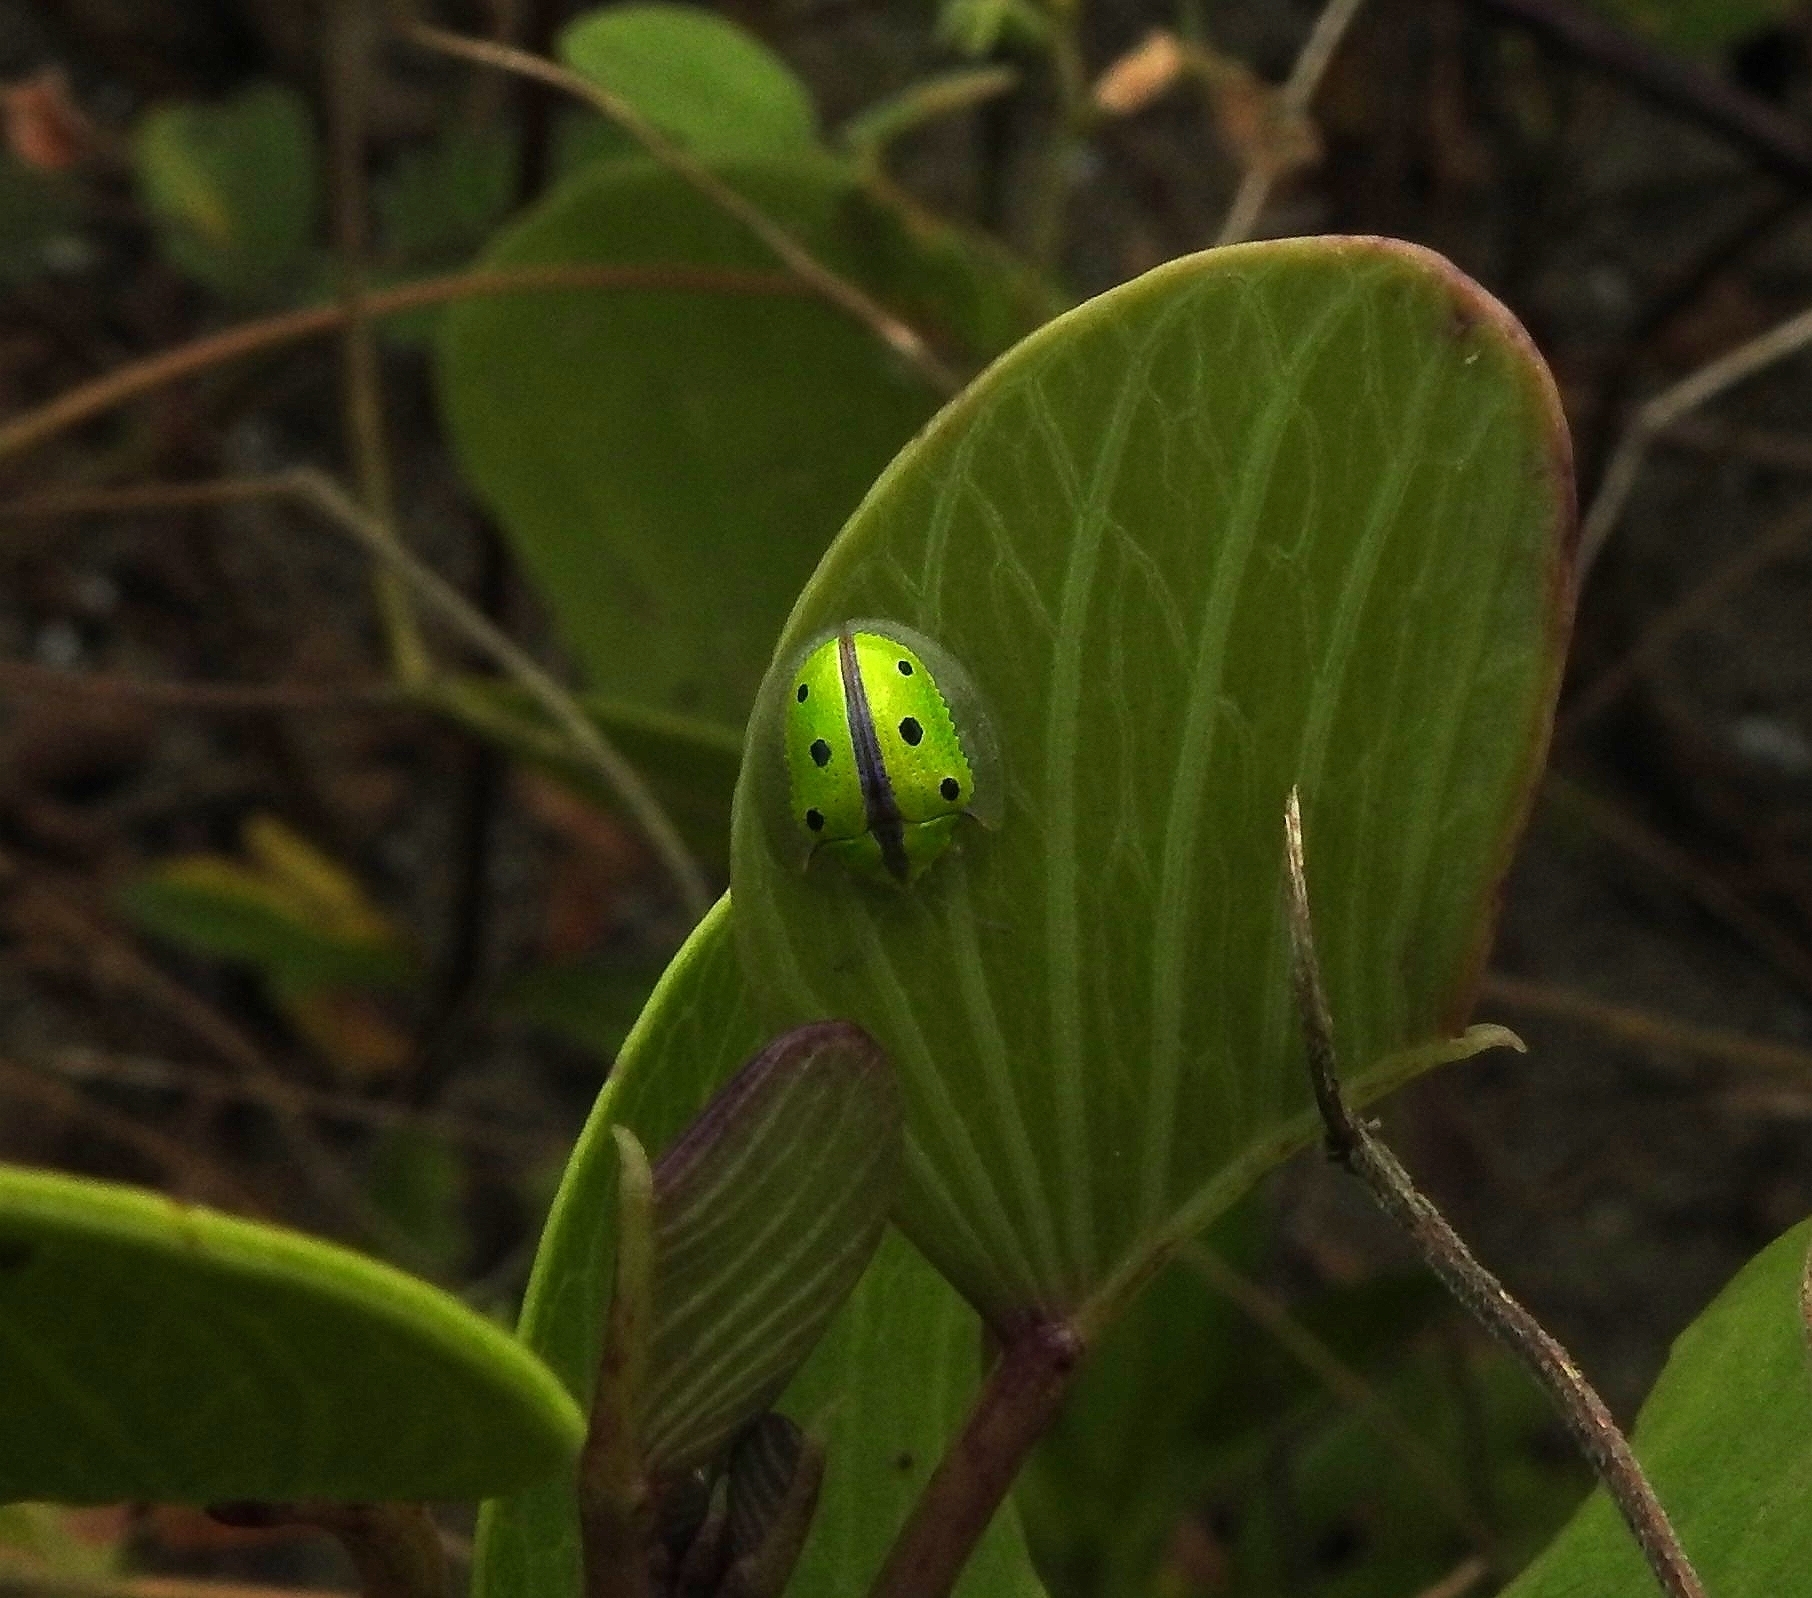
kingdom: Animalia
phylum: Arthropoda
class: Insecta
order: Coleoptera
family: Chrysomelidae
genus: Chiridopsis
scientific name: Chiridopsis bipunctata
